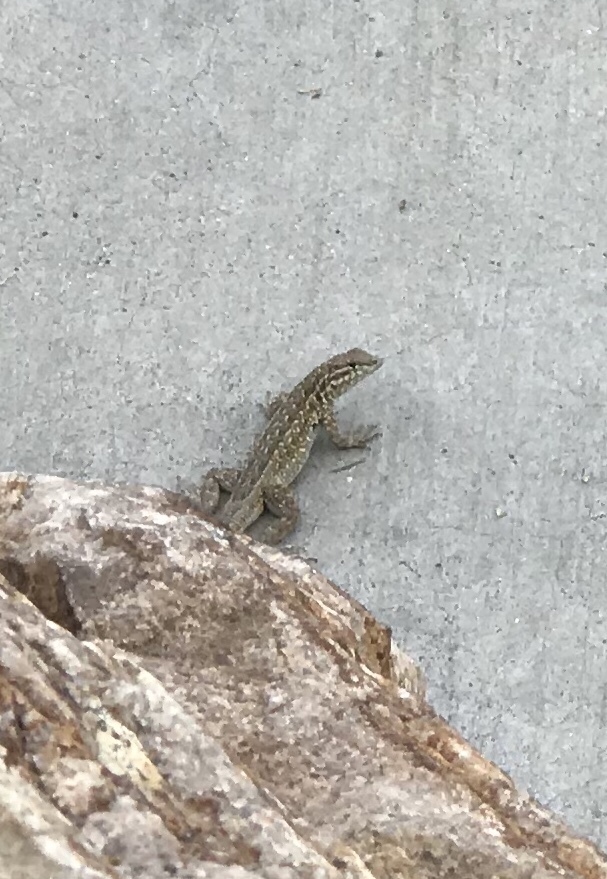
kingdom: Animalia
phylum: Chordata
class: Squamata
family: Phrynosomatidae
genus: Uta
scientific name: Uta stansburiana
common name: Side-blotched lizard
